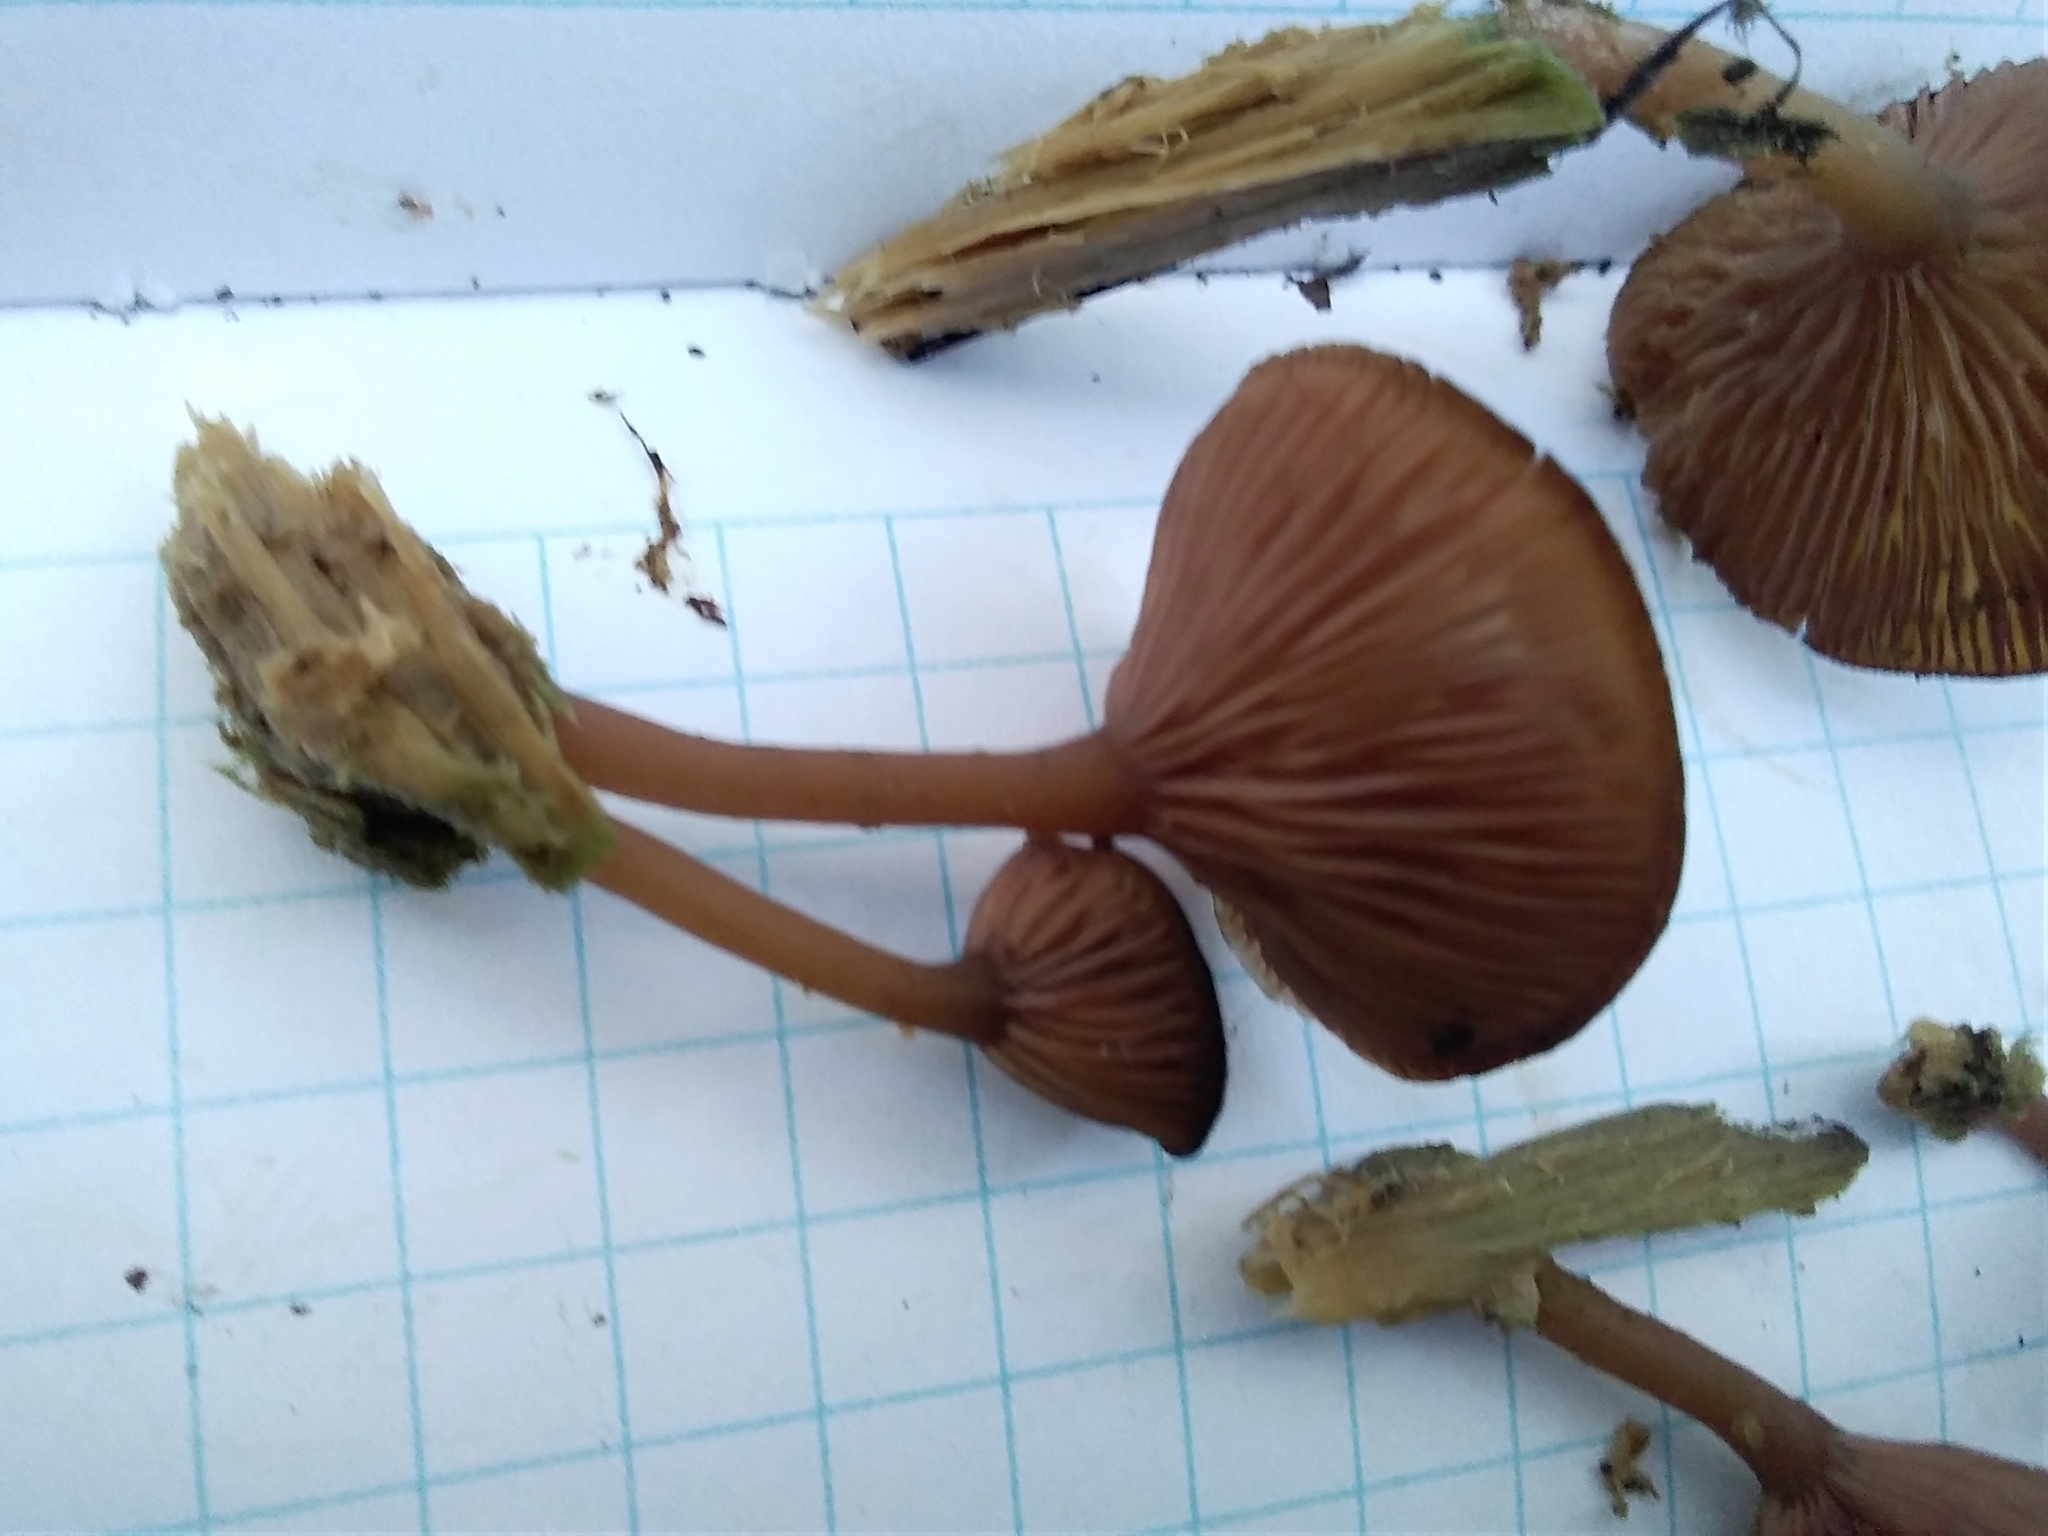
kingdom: Fungi
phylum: Basidiomycota
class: Agaricomycetes
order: Agaricales
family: Hygrophoraceae
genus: Arrhenia
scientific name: Arrhenia discorosea
